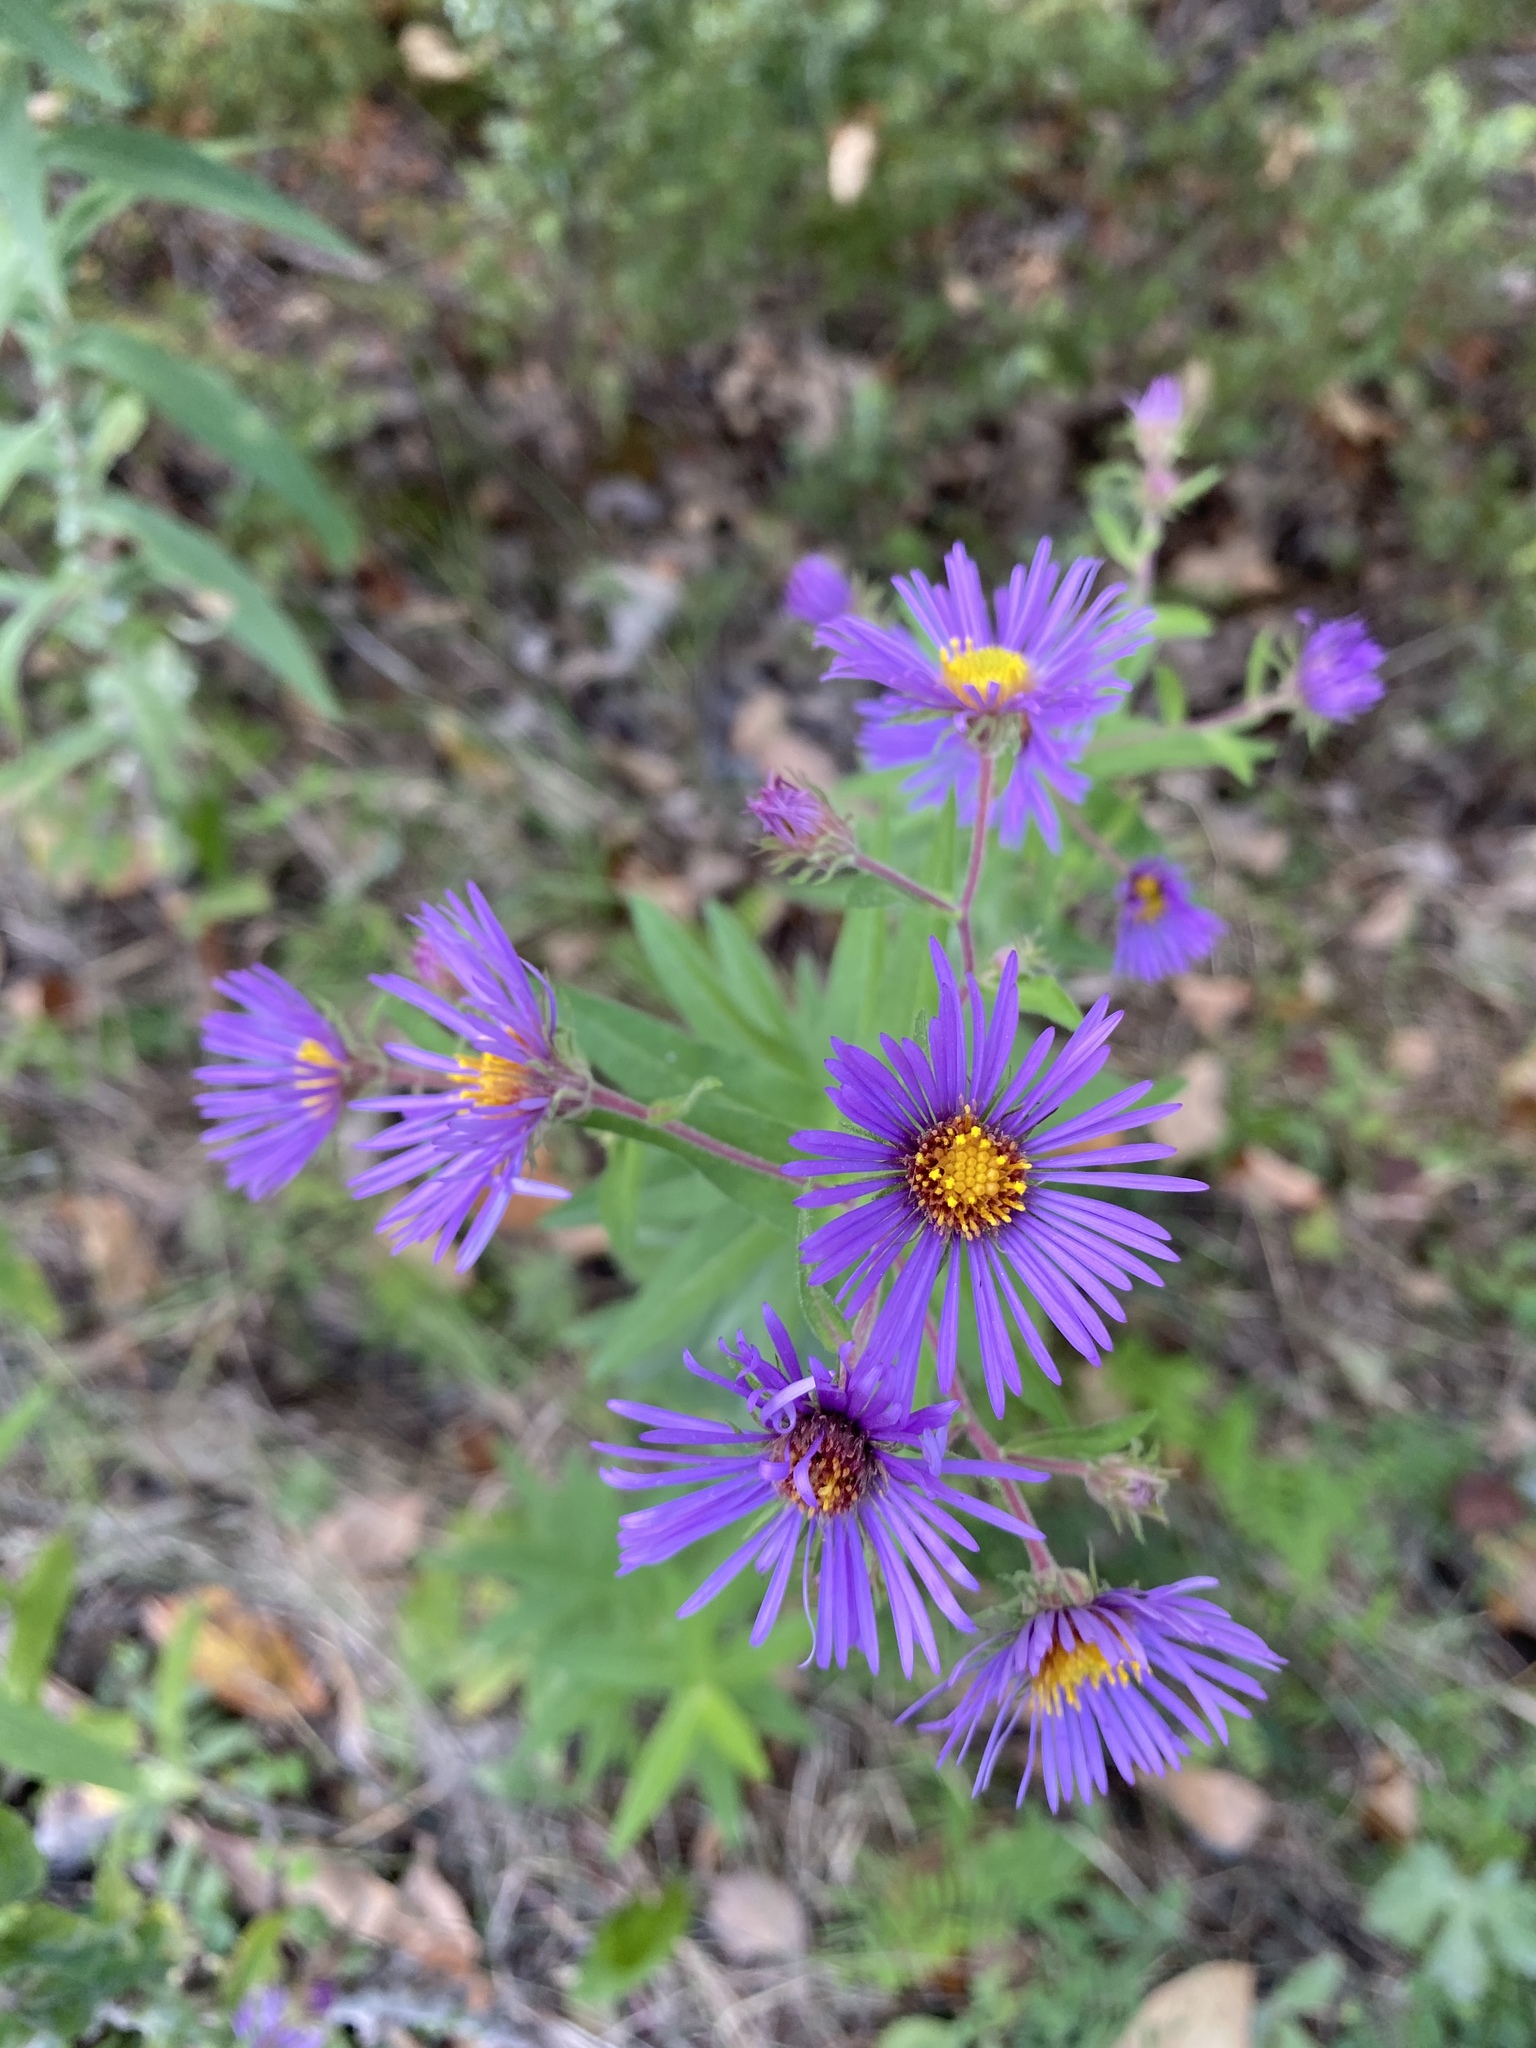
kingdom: Plantae
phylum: Tracheophyta
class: Magnoliopsida
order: Asterales
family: Asteraceae
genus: Symphyotrichum
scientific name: Symphyotrichum novae-angliae
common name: Michaelmas daisy
